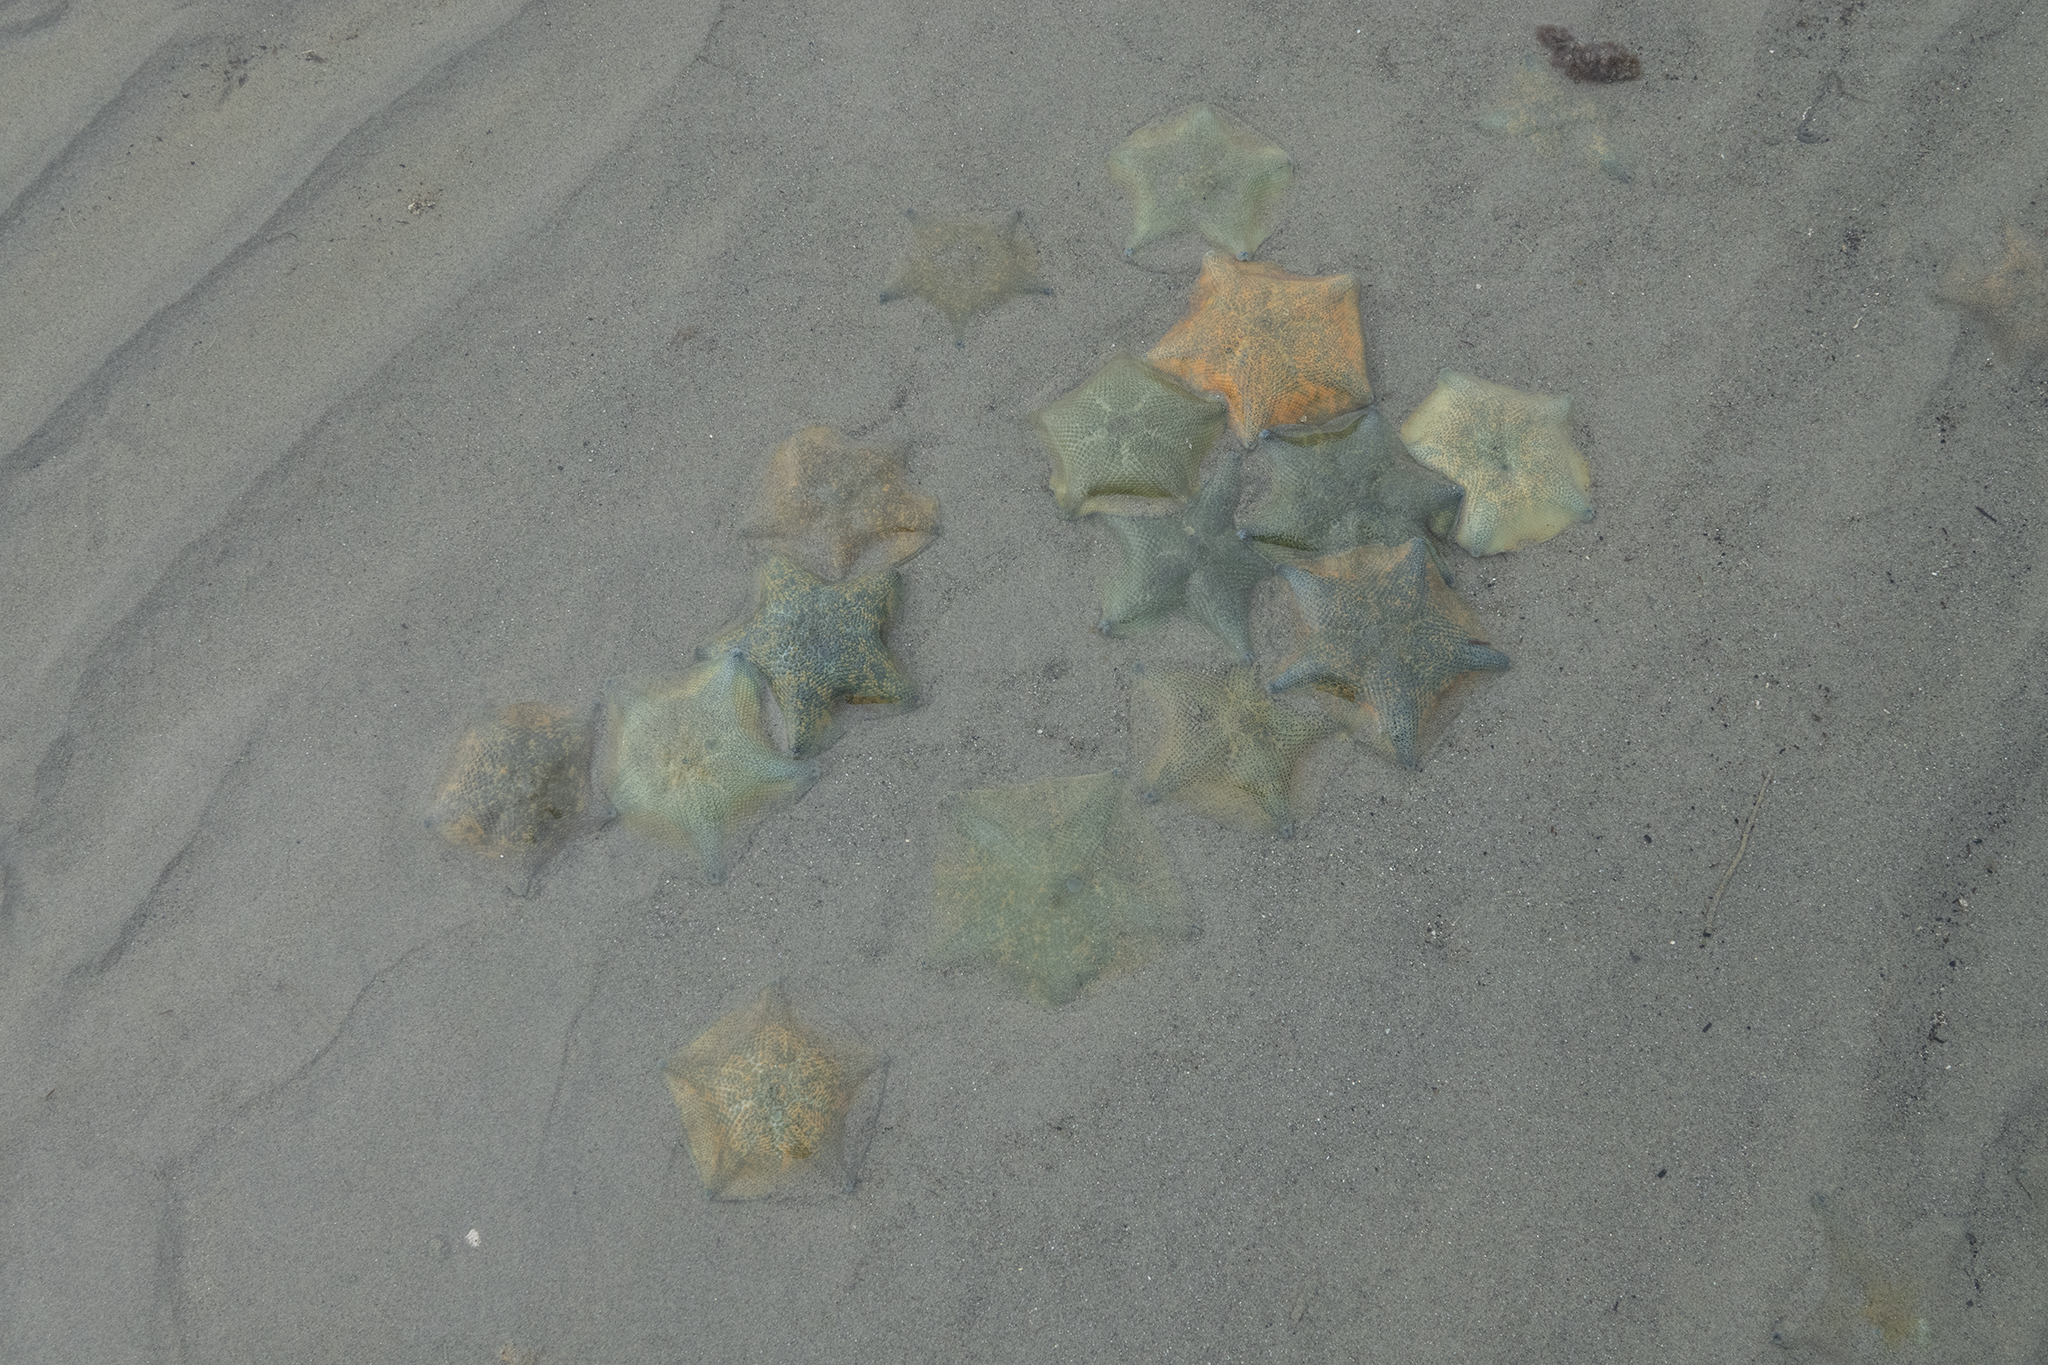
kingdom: Animalia
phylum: Echinodermata
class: Asteroidea
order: Valvatida
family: Asterinidae
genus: Patiriella
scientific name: Patiriella regularis
